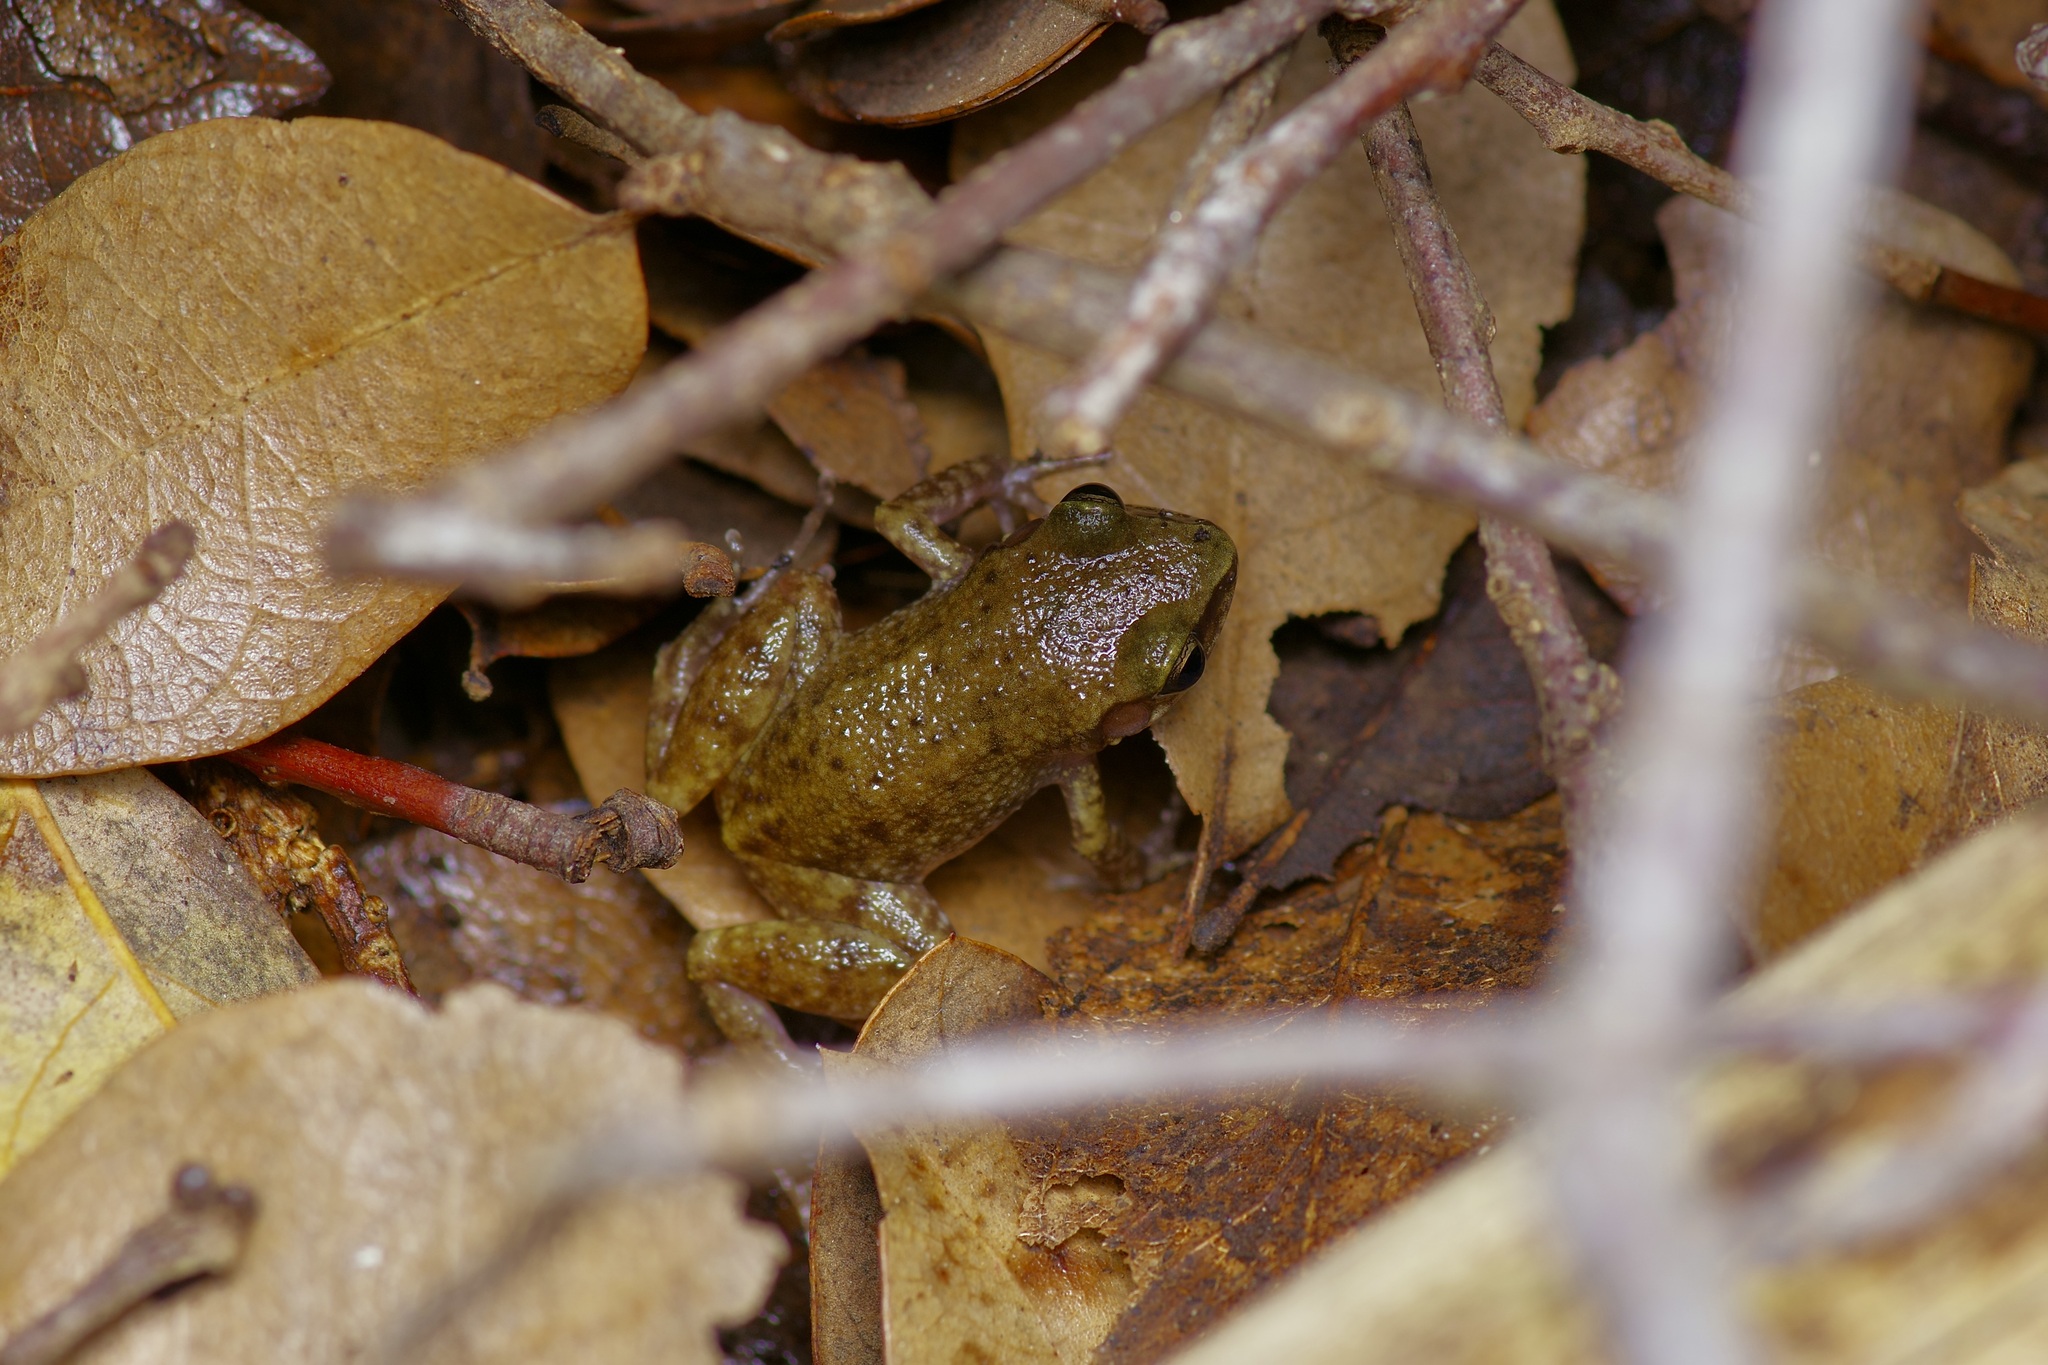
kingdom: Animalia
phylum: Chordata
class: Amphibia
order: Anura
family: Eleutherodactylidae
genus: Eleutherodactylus
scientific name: Eleutherodactylus campi
